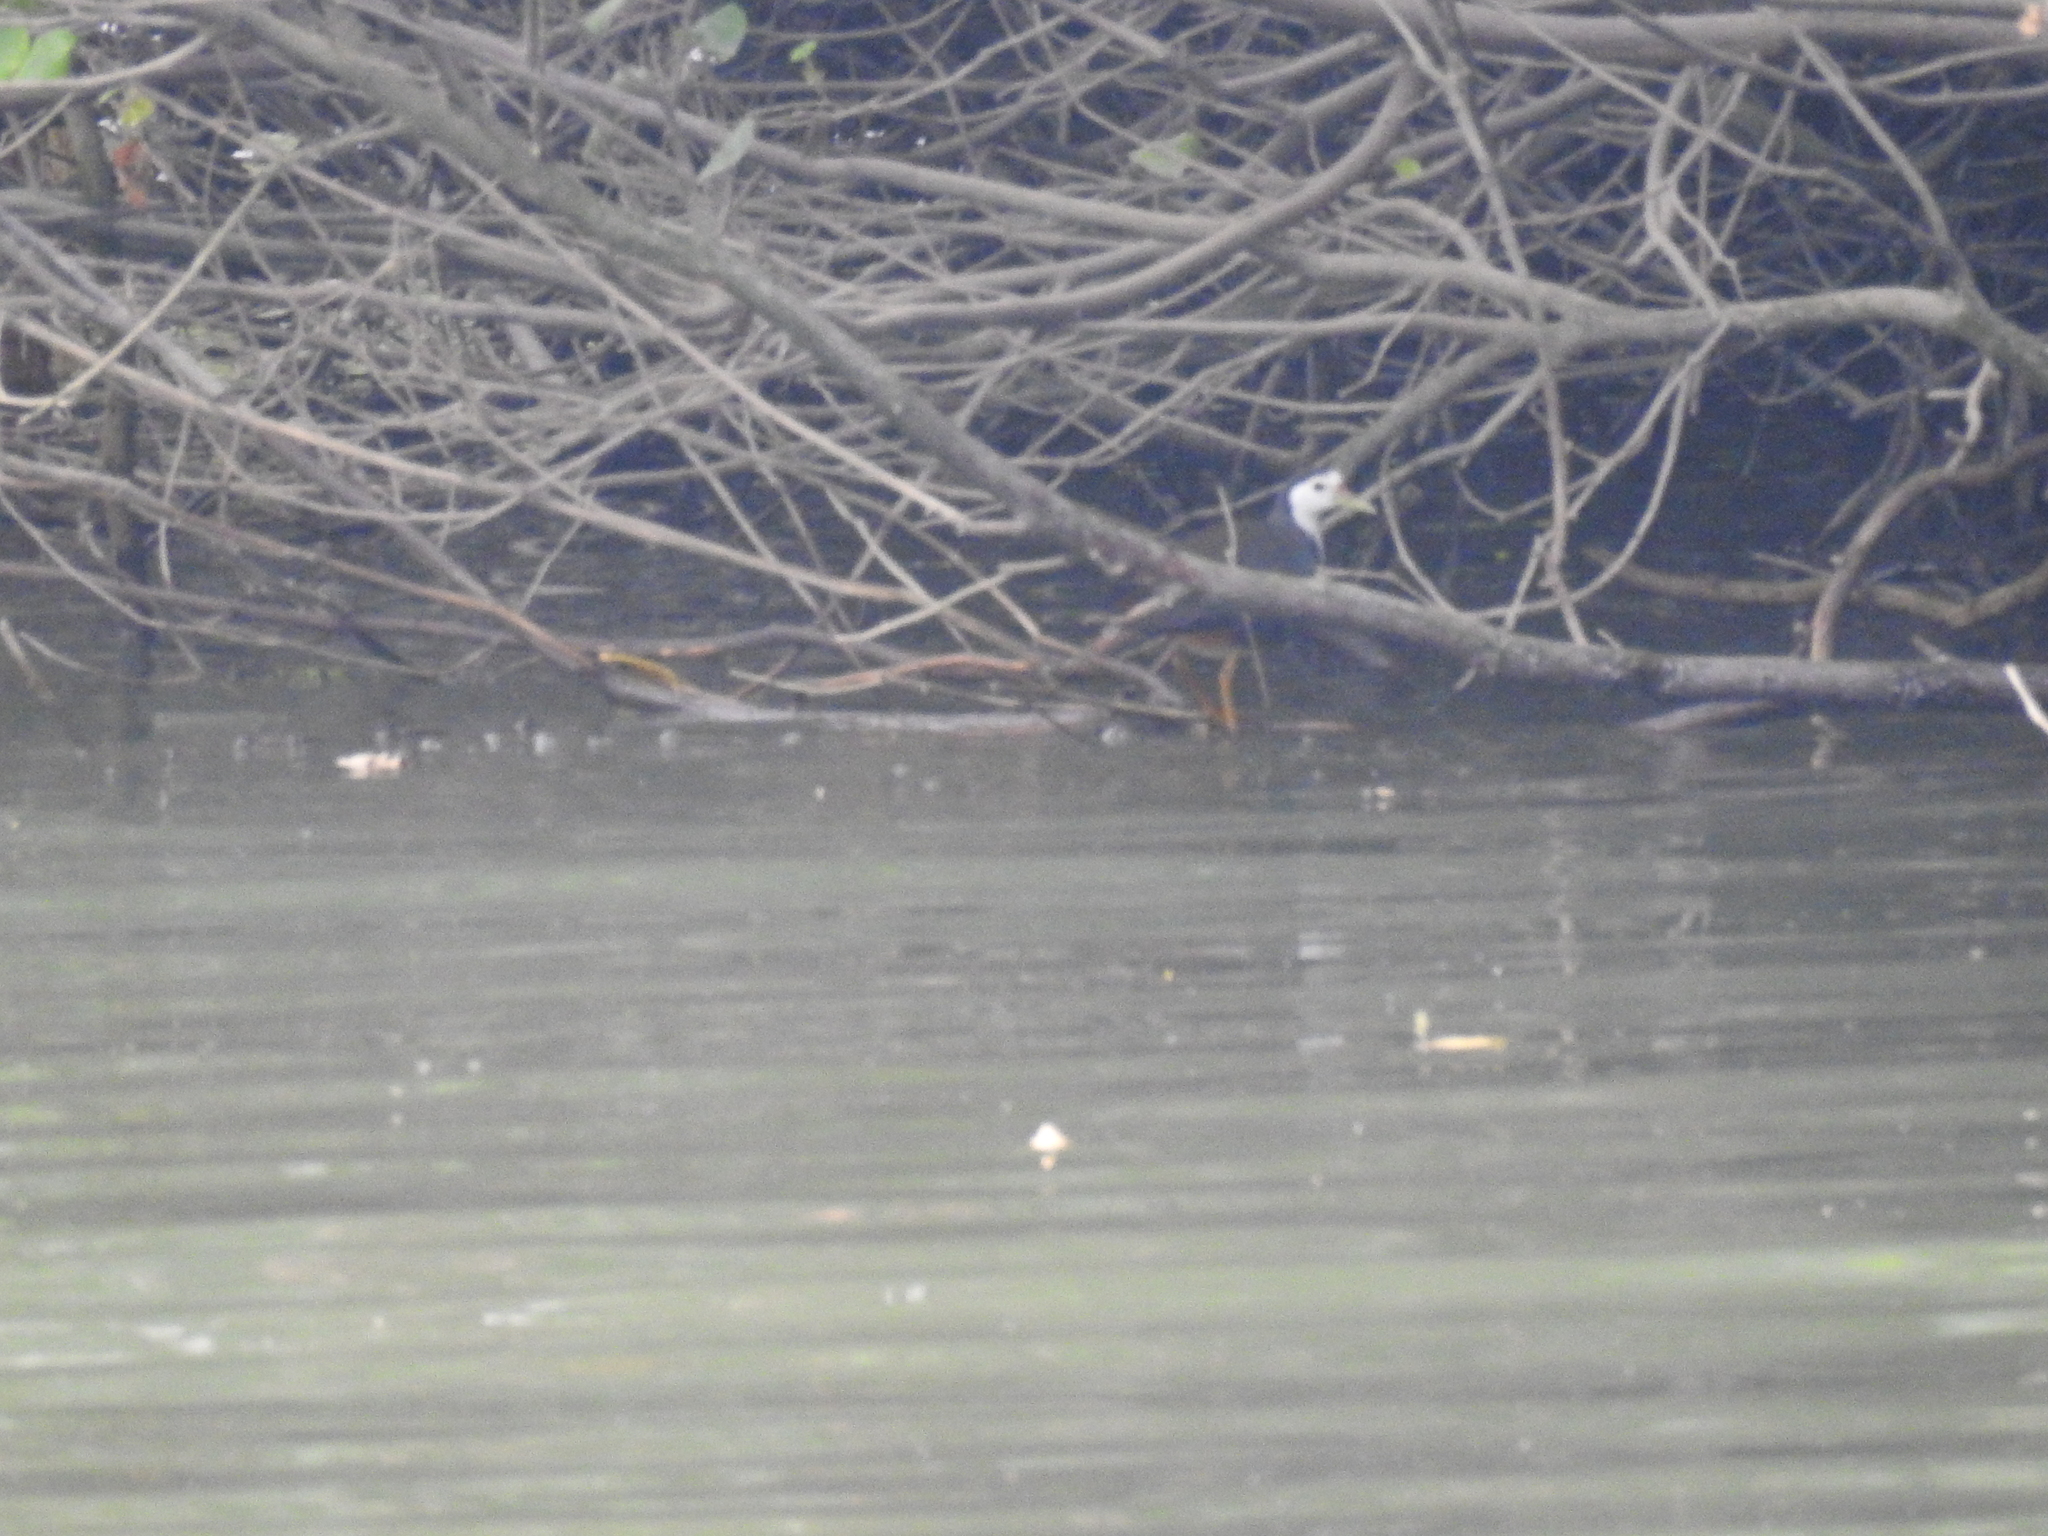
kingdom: Animalia
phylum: Chordata
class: Aves
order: Gruiformes
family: Rallidae
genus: Amaurornis
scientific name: Amaurornis phoenicurus
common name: White-breasted waterhen
